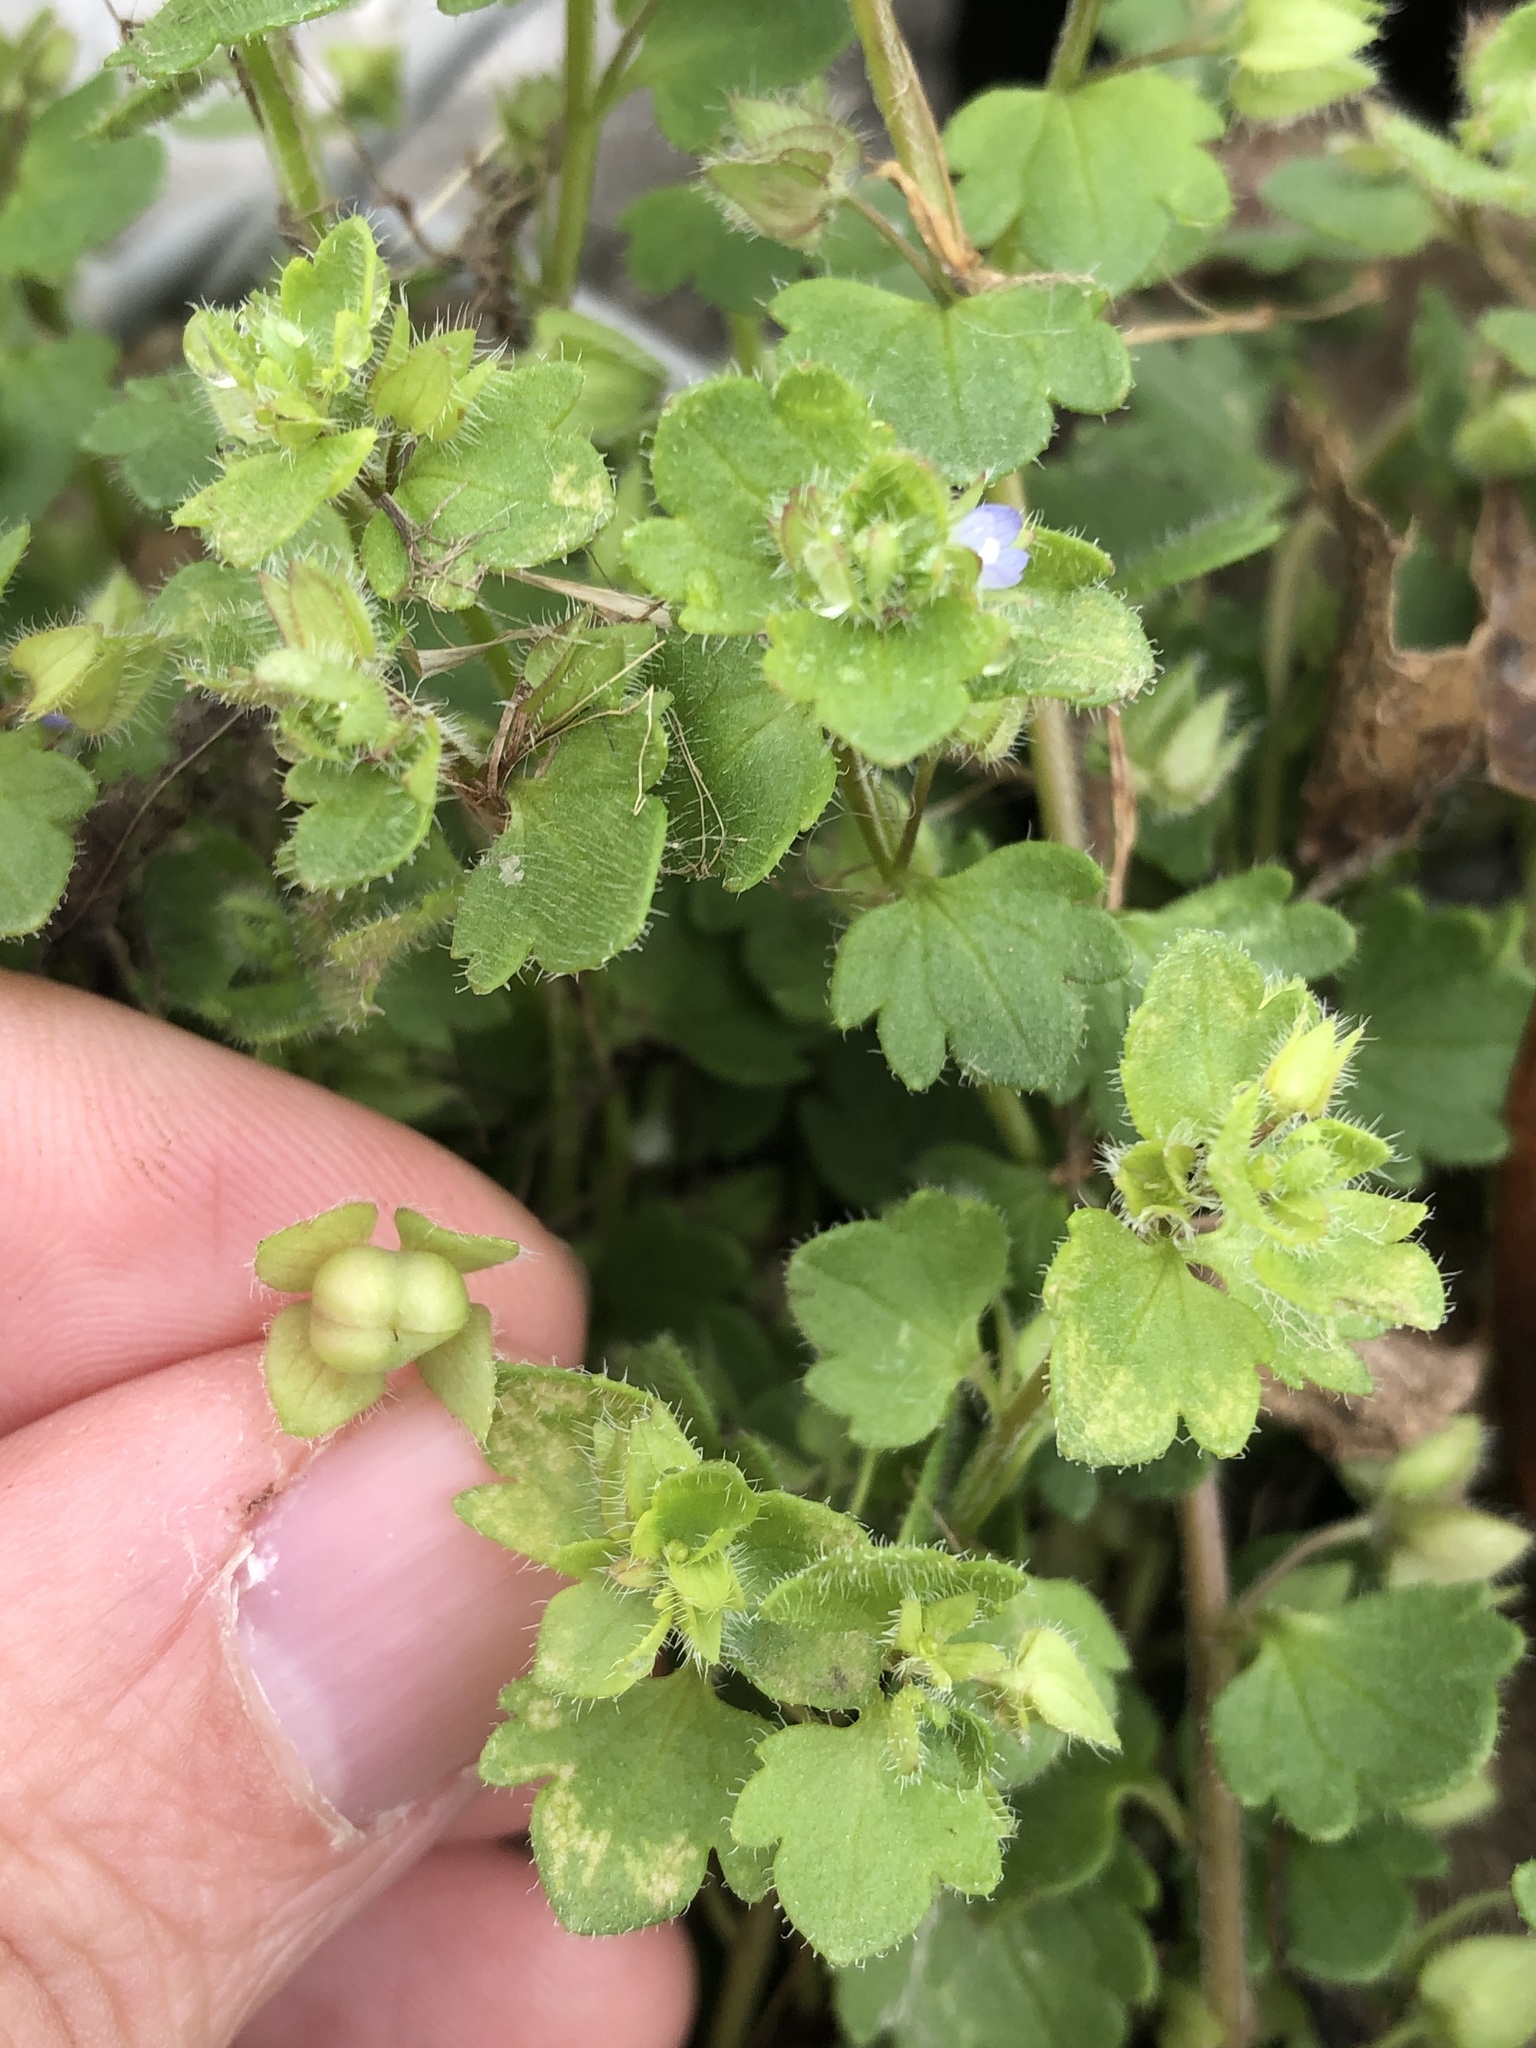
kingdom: Plantae
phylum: Tracheophyta
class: Magnoliopsida
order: Lamiales
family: Plantaginaceae
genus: Veronica
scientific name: Veronica hederifolia
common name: Ivy-leaved speedwell
